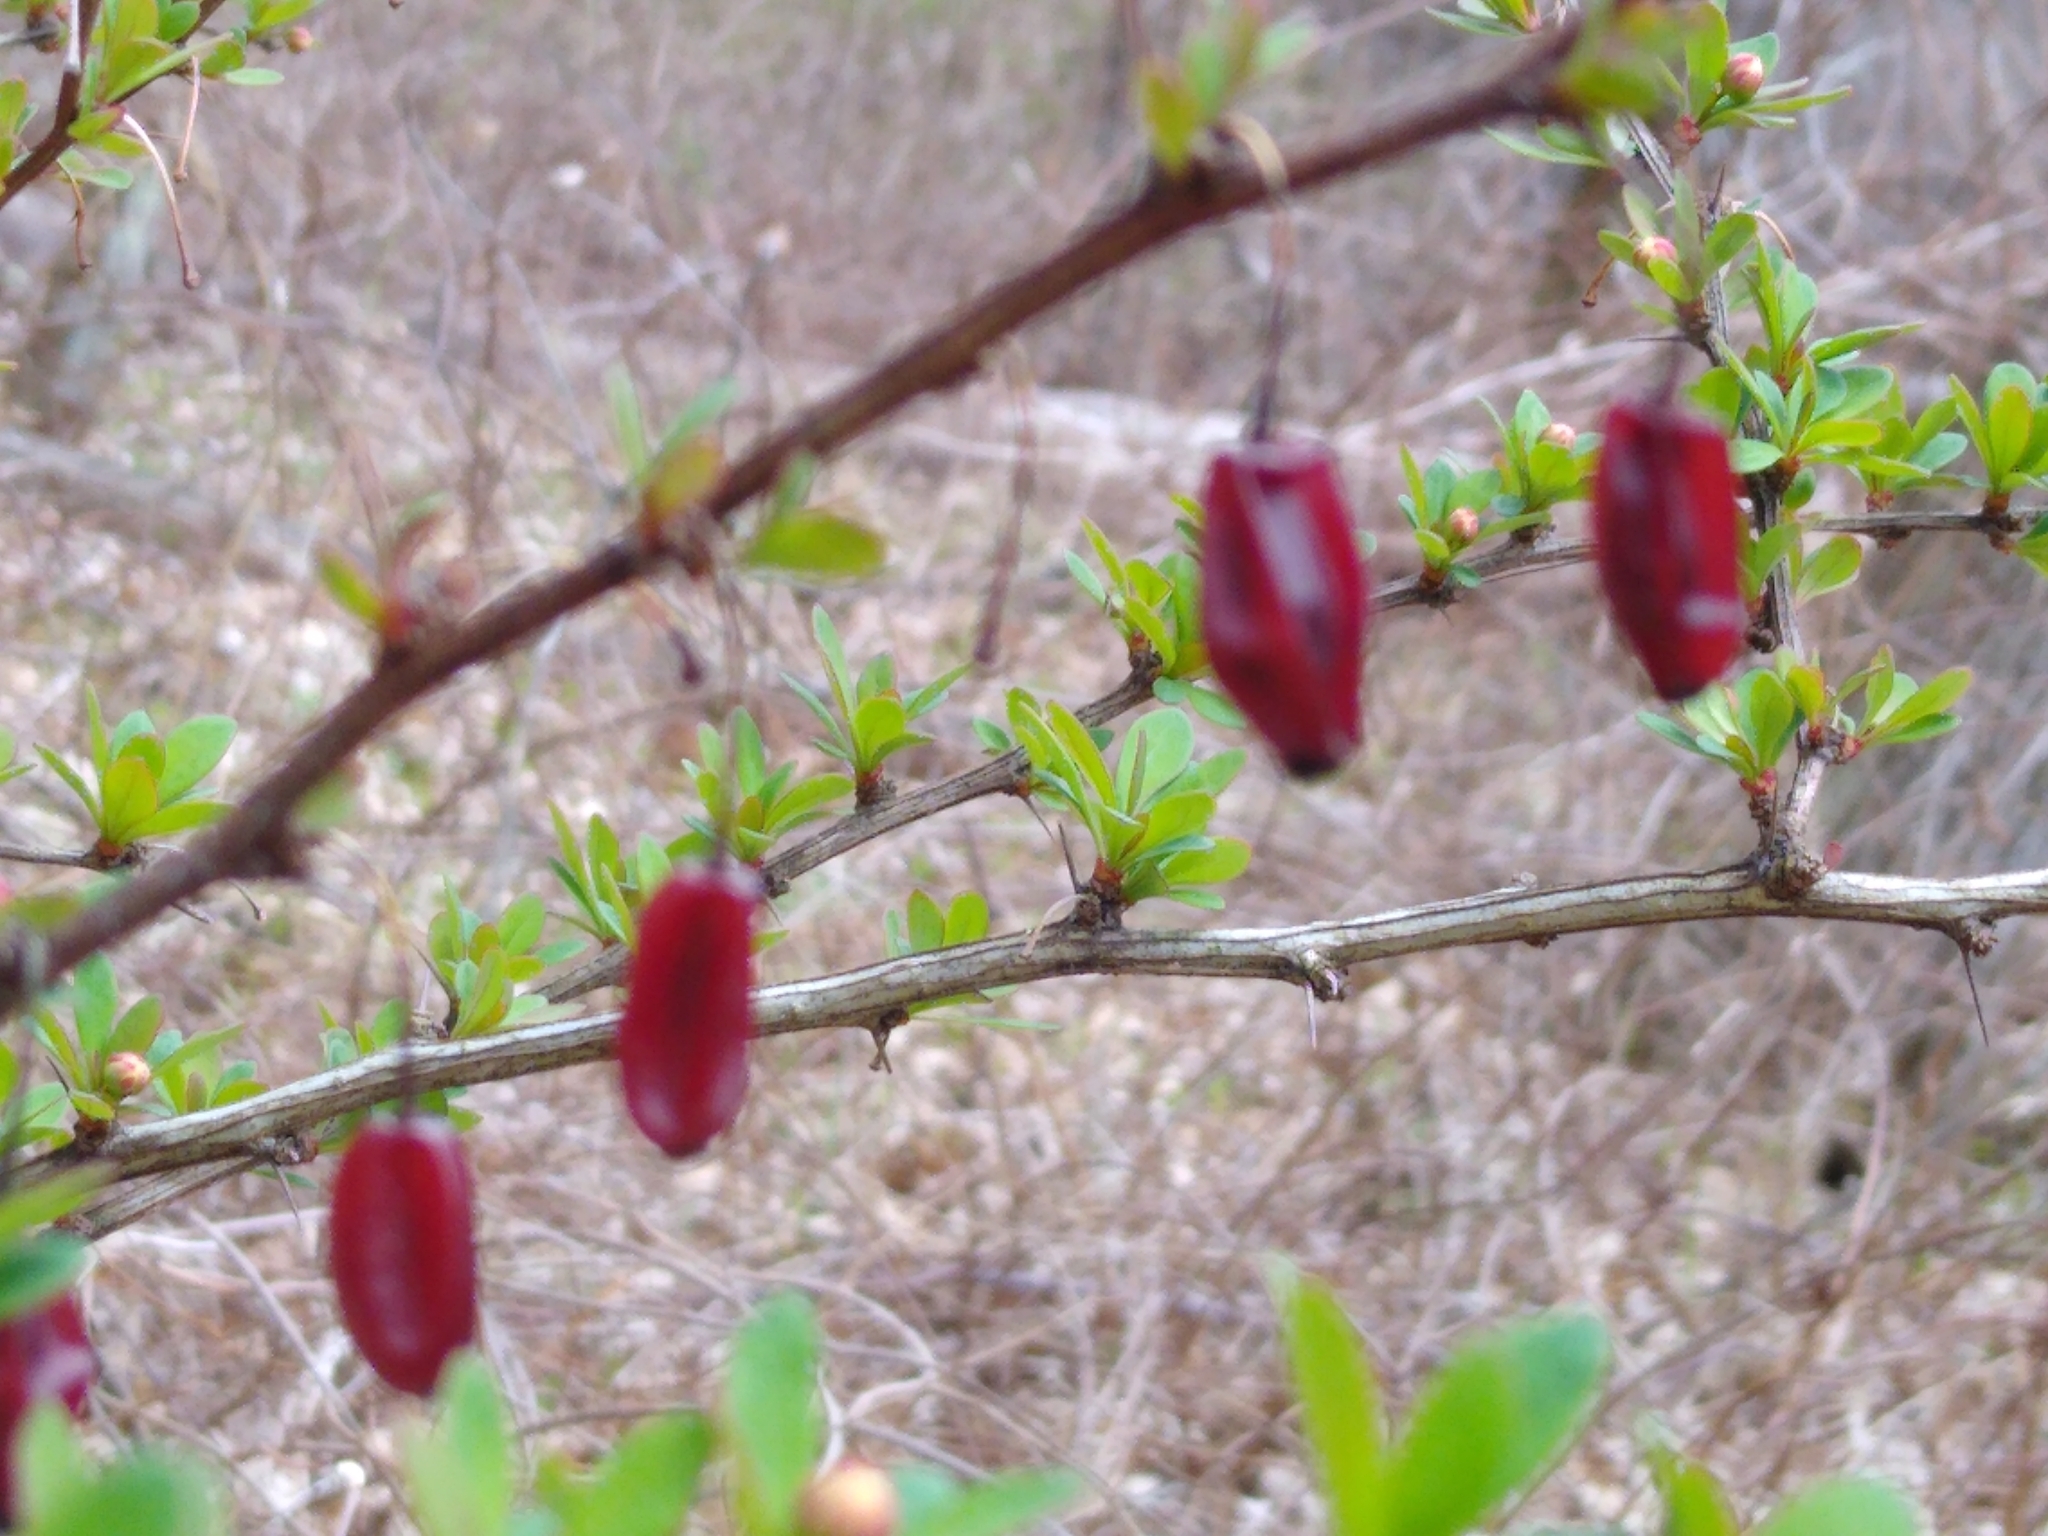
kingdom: Plantae
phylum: Tracheophyta
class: Magnoliopsida
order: Ranunculales
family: Berberidaceae
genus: Berberis
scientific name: Berberis thunbergii
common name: Japanese barberry
